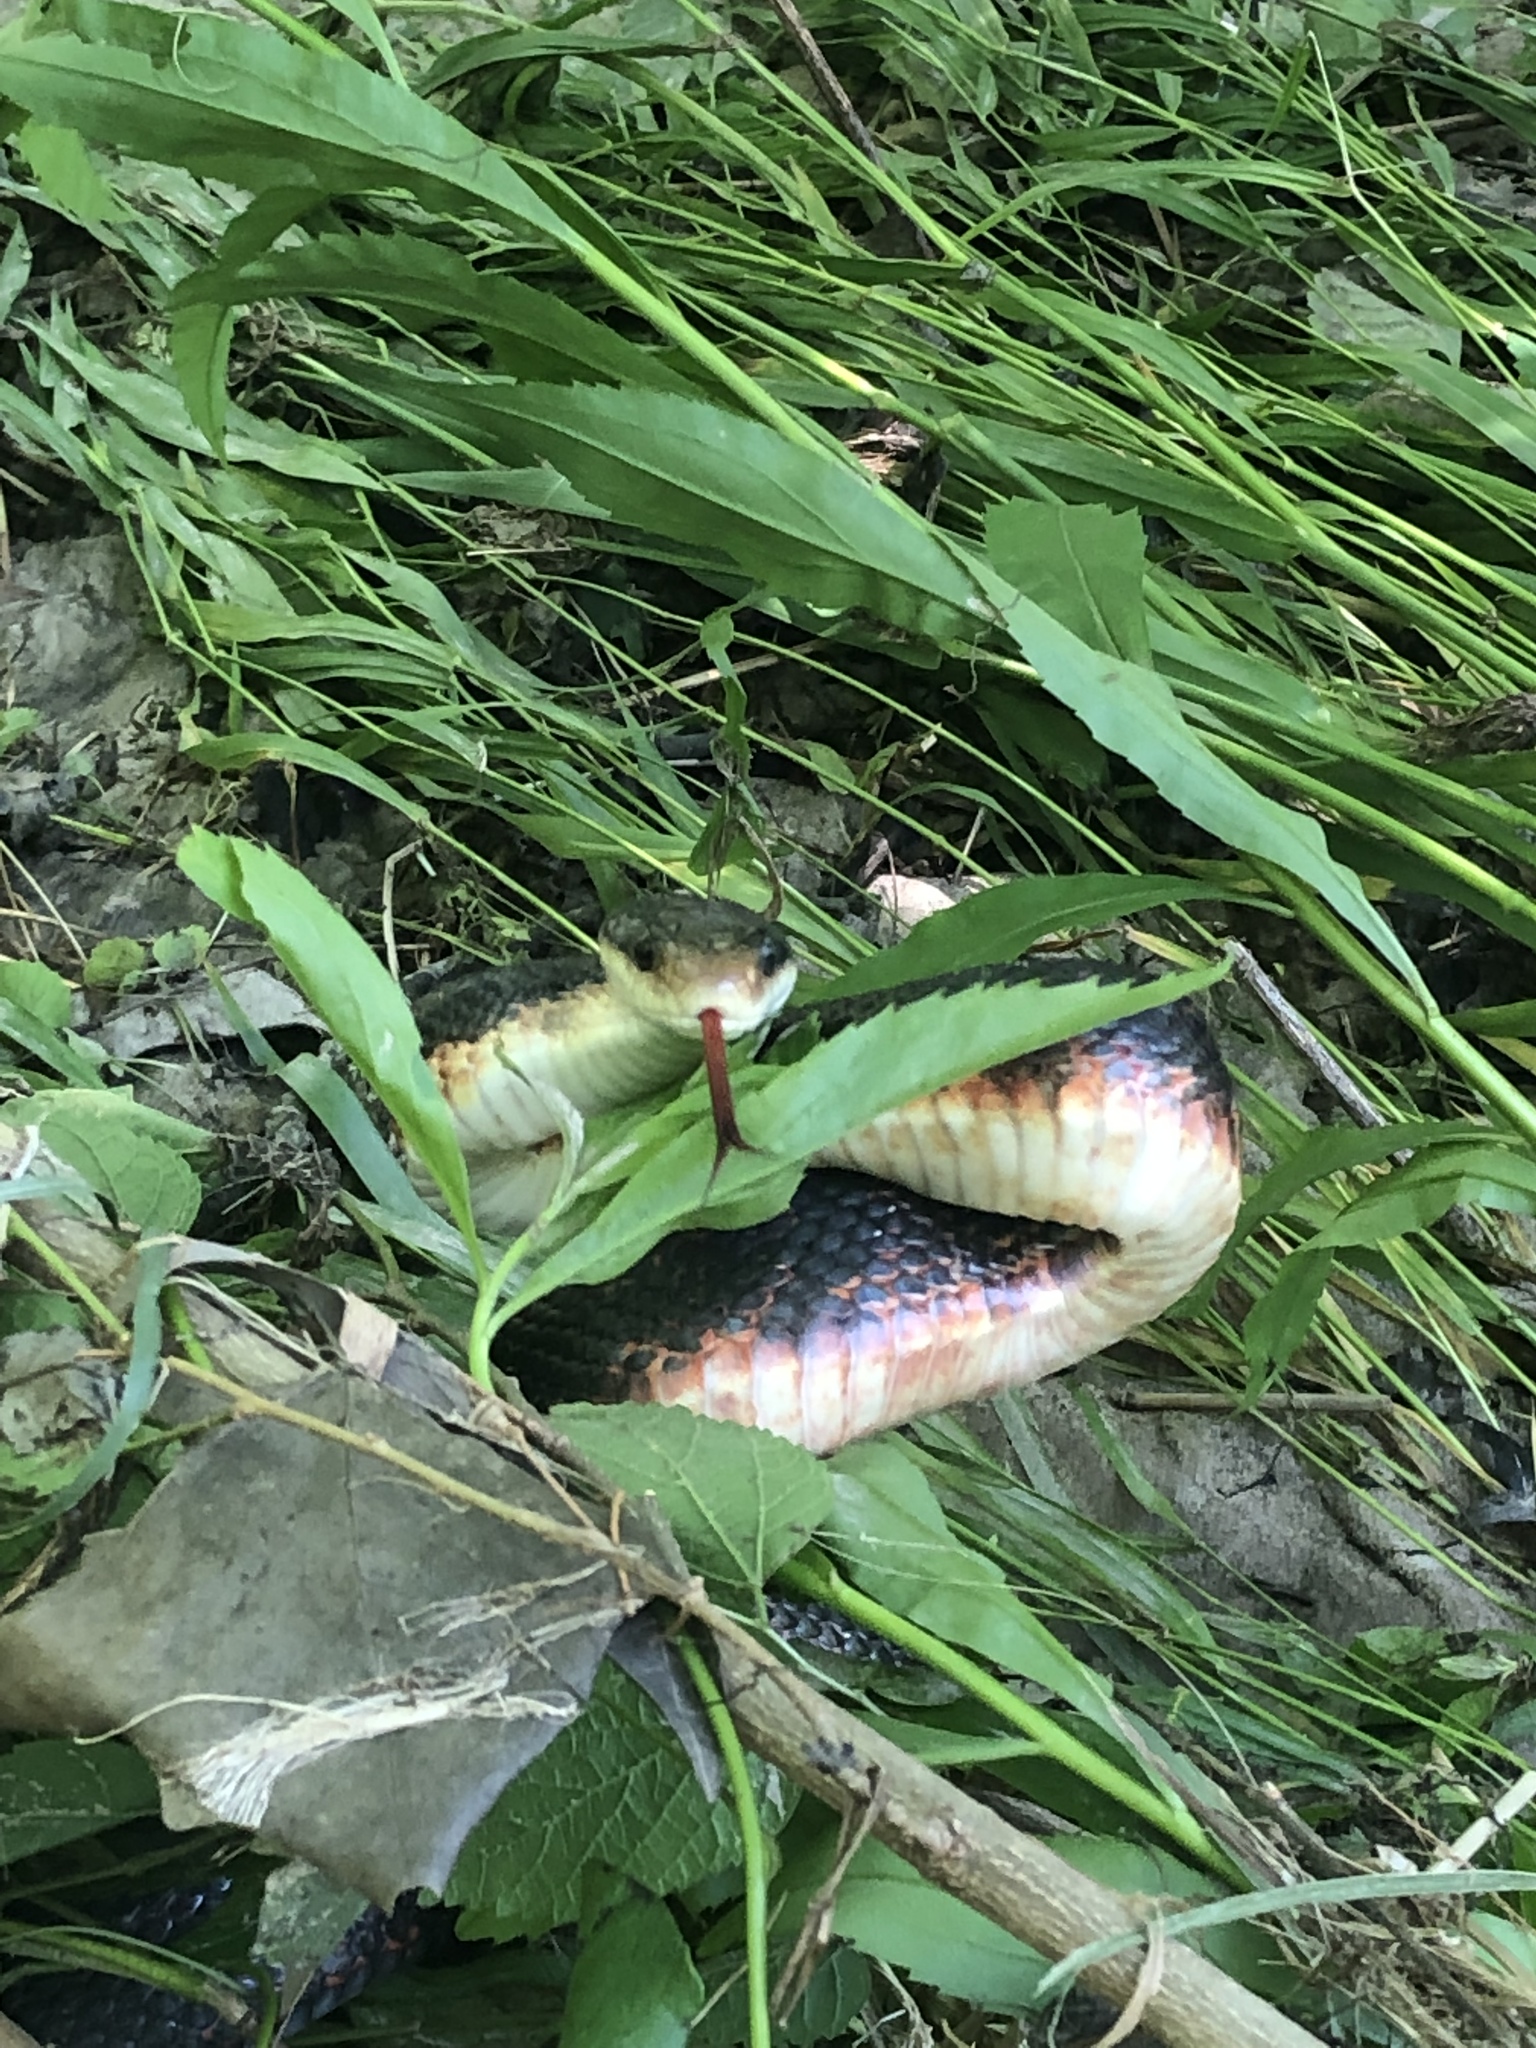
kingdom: Animalia
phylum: Chordata
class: Squamata
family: Colubridae
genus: Pantherophis
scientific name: Pantherophis obsoletus
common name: Black rat snake
